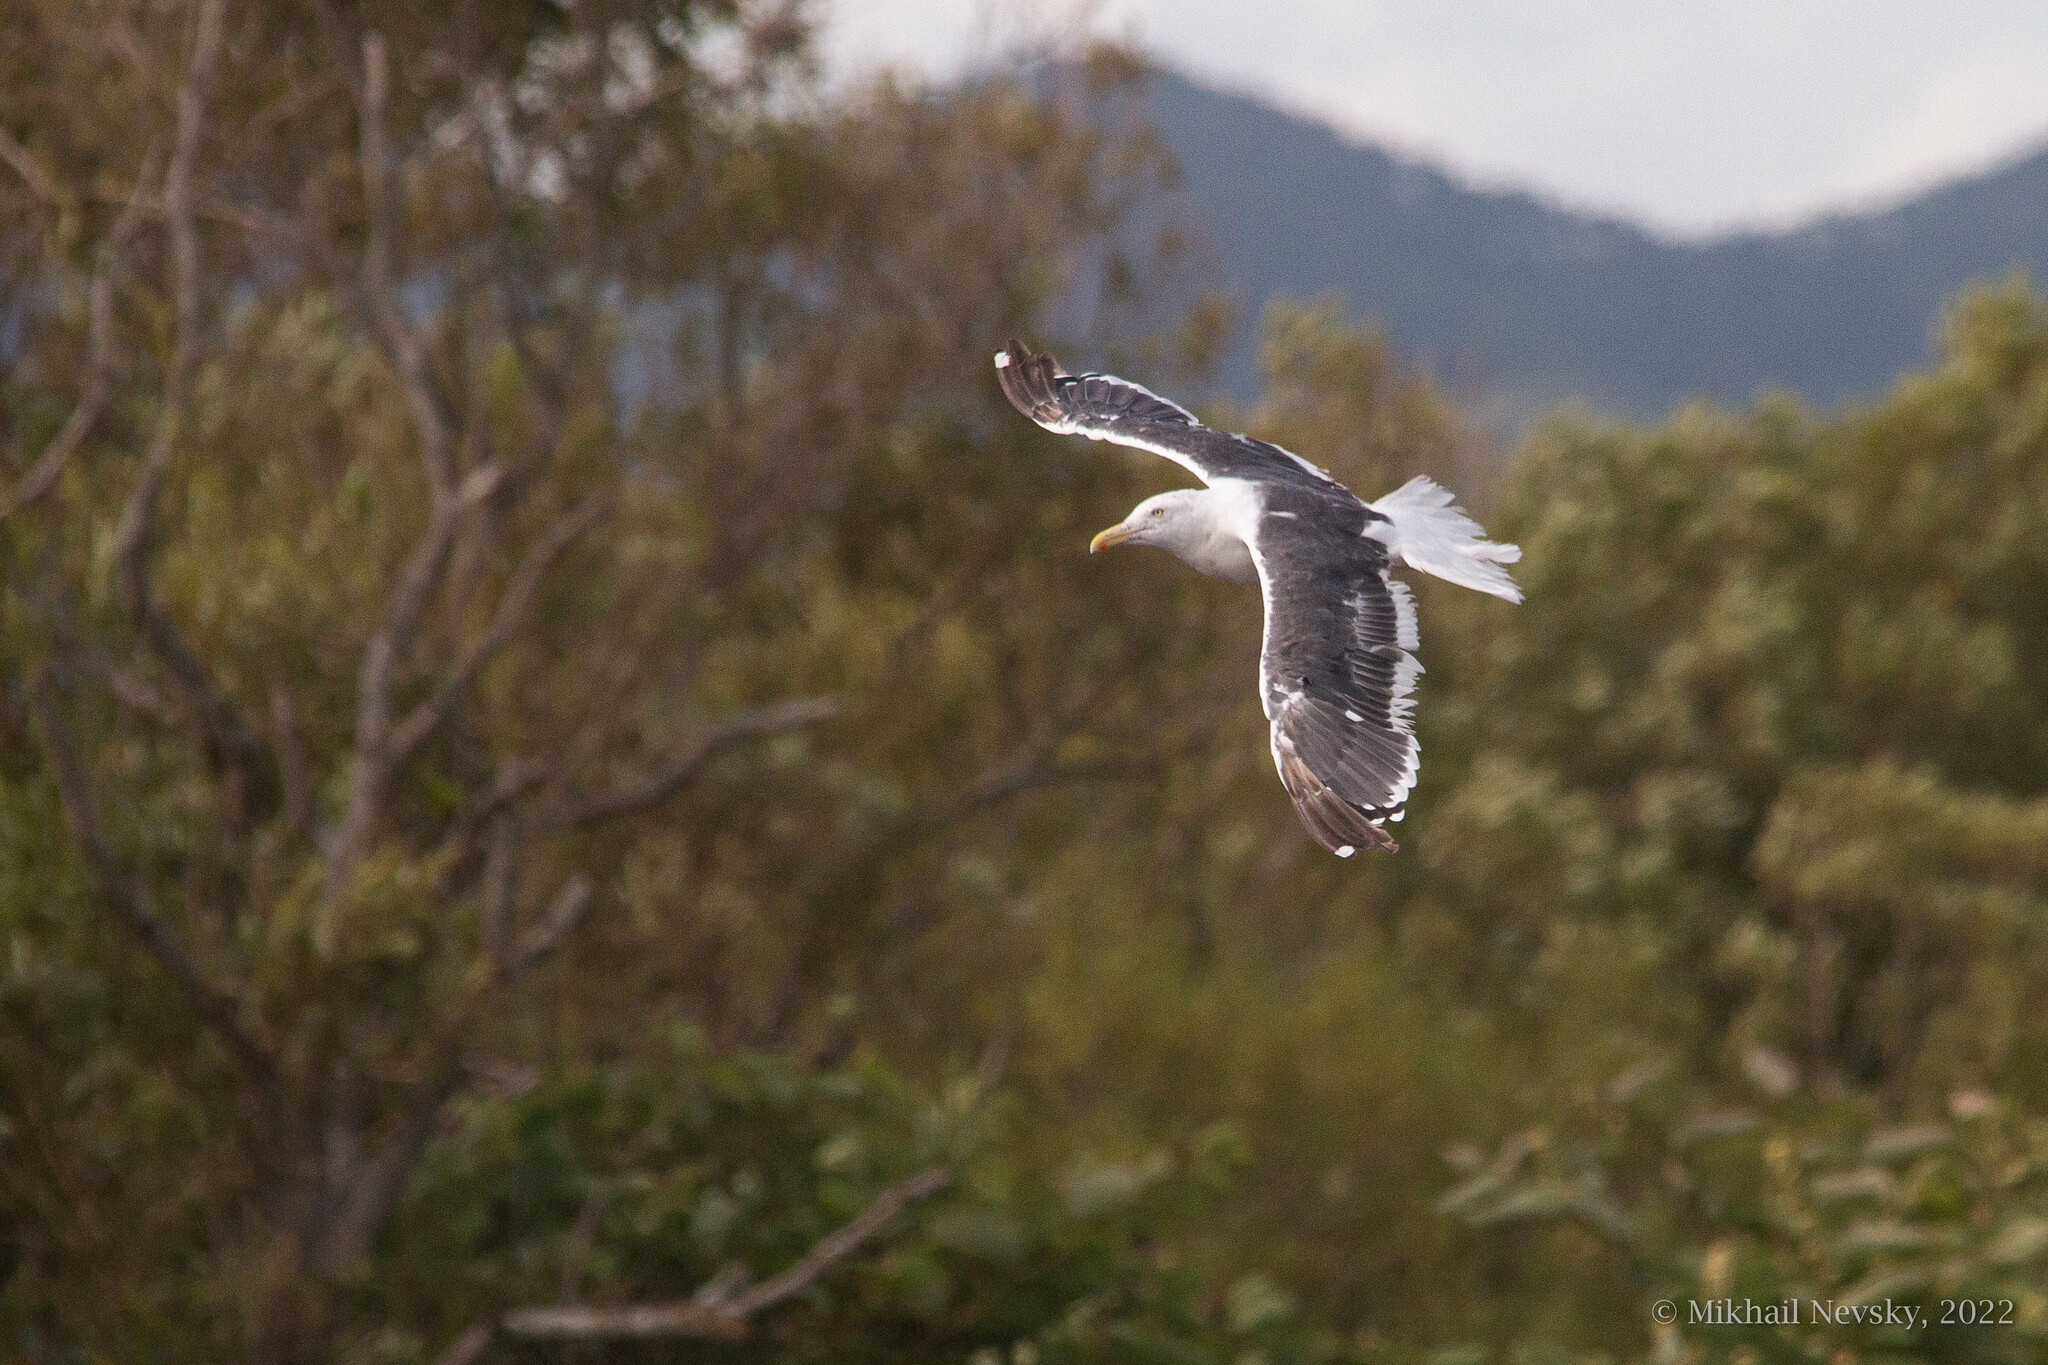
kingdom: Animalia
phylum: Chordata
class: Aves
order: Charadriiformes
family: Laridae
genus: Larus
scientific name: Larus schistisagus
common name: Slaty-backed gull
